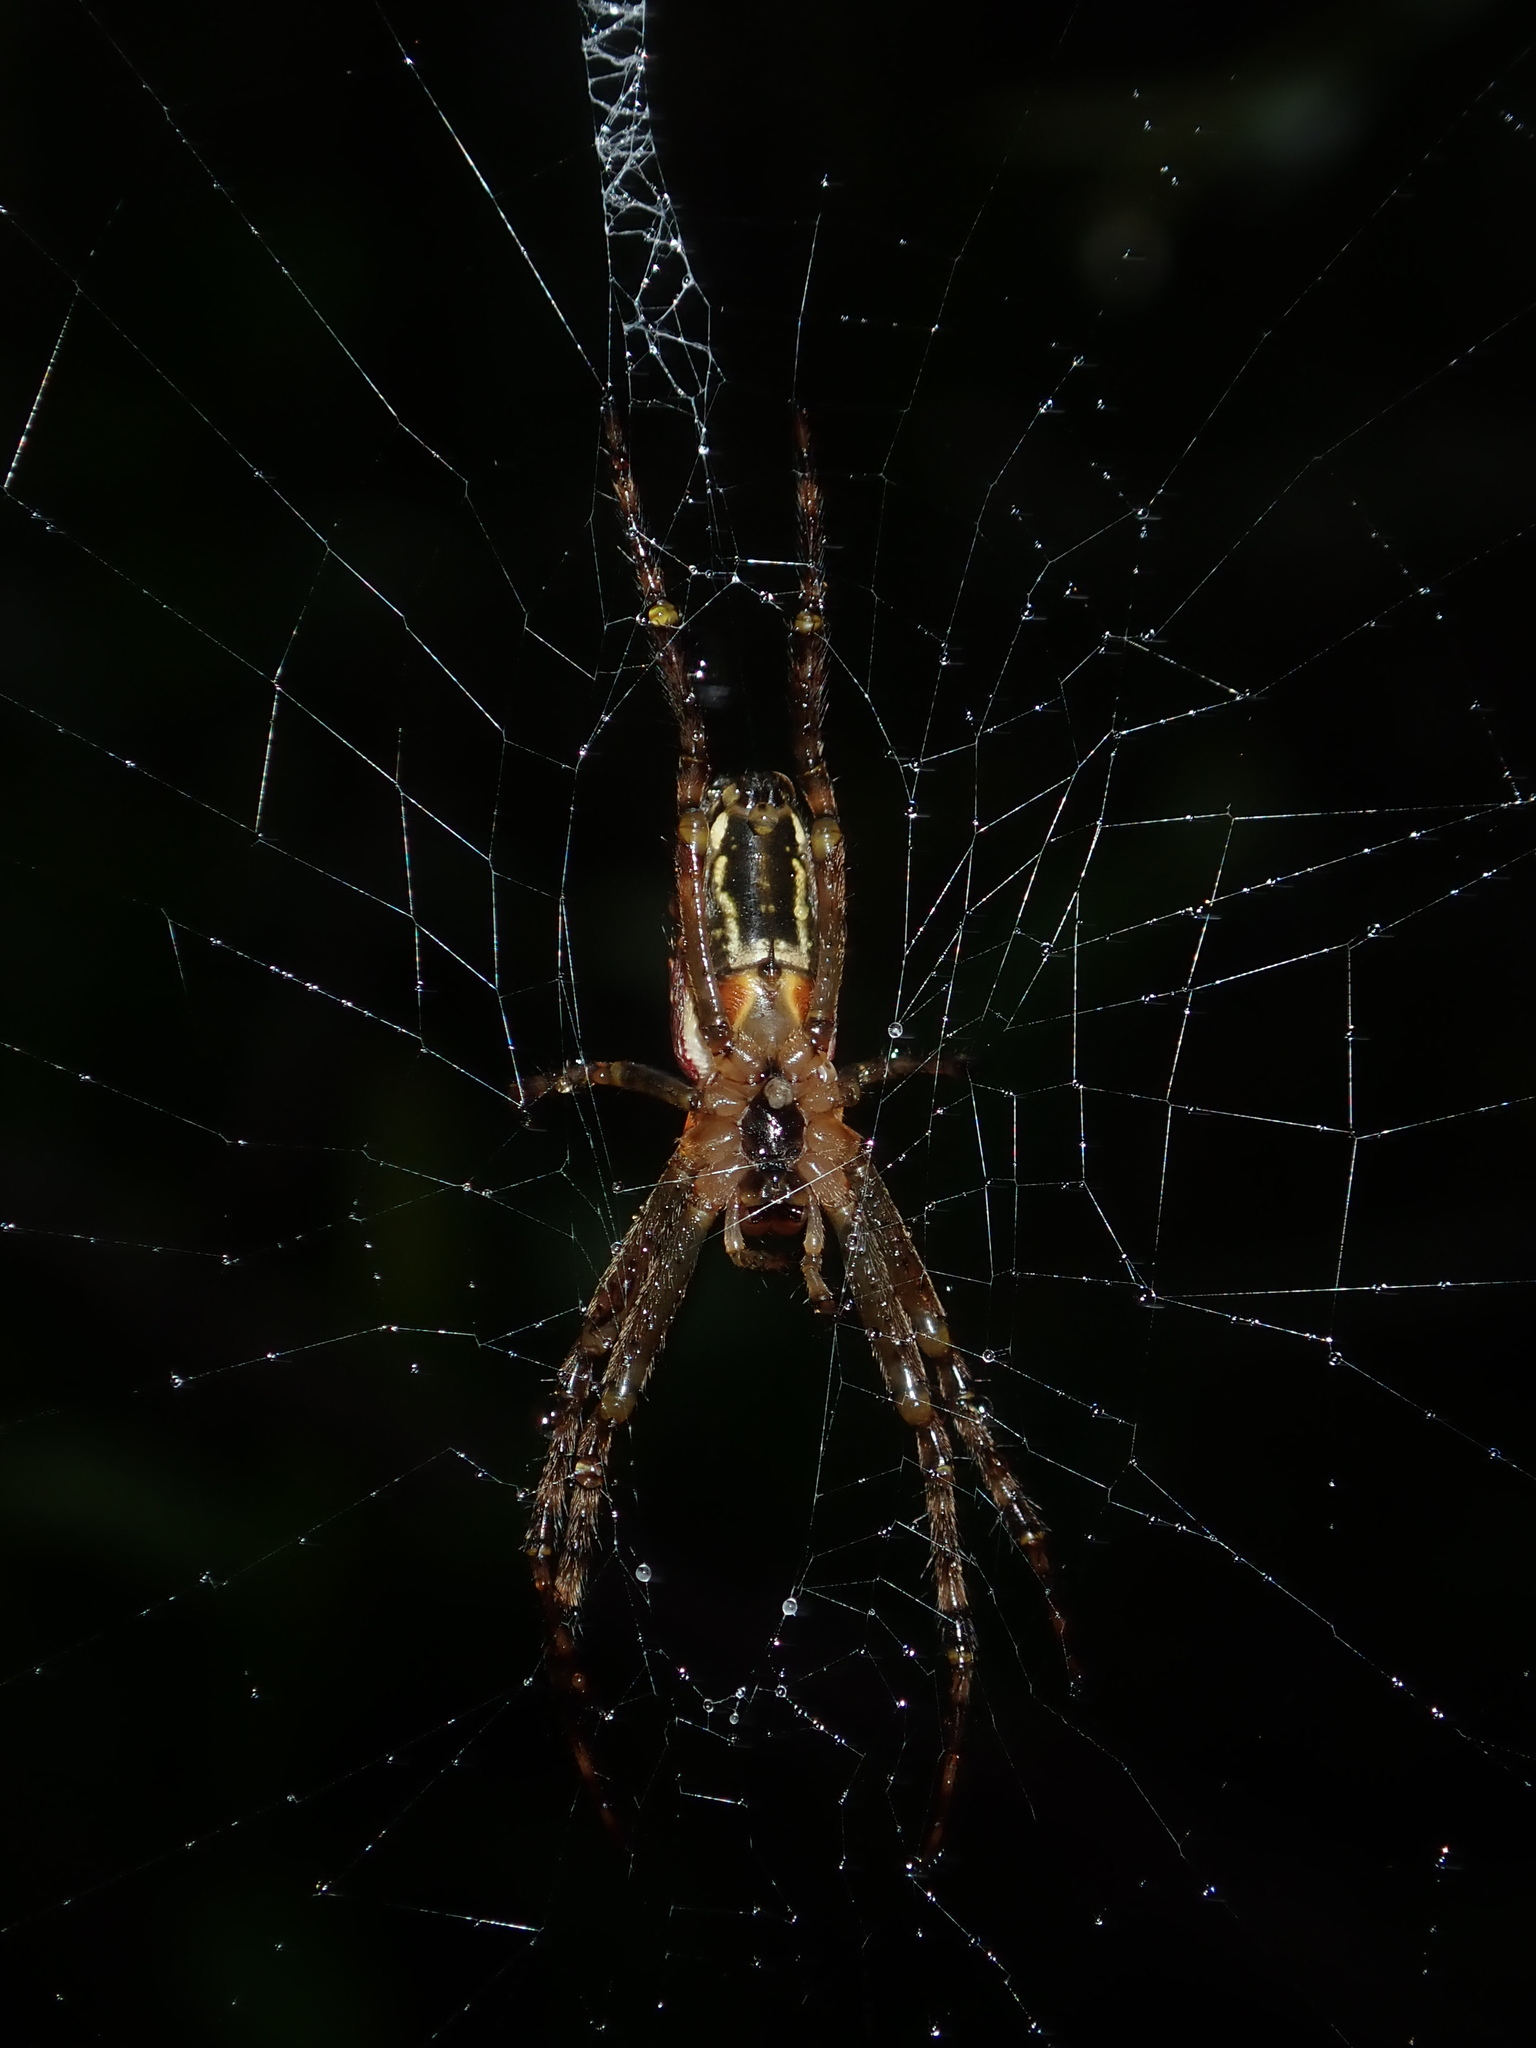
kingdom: Animalia
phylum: Arthropoda
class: Arachnida
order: Araneae
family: Araneidae
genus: Plebs
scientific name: Plebs bradleyi
